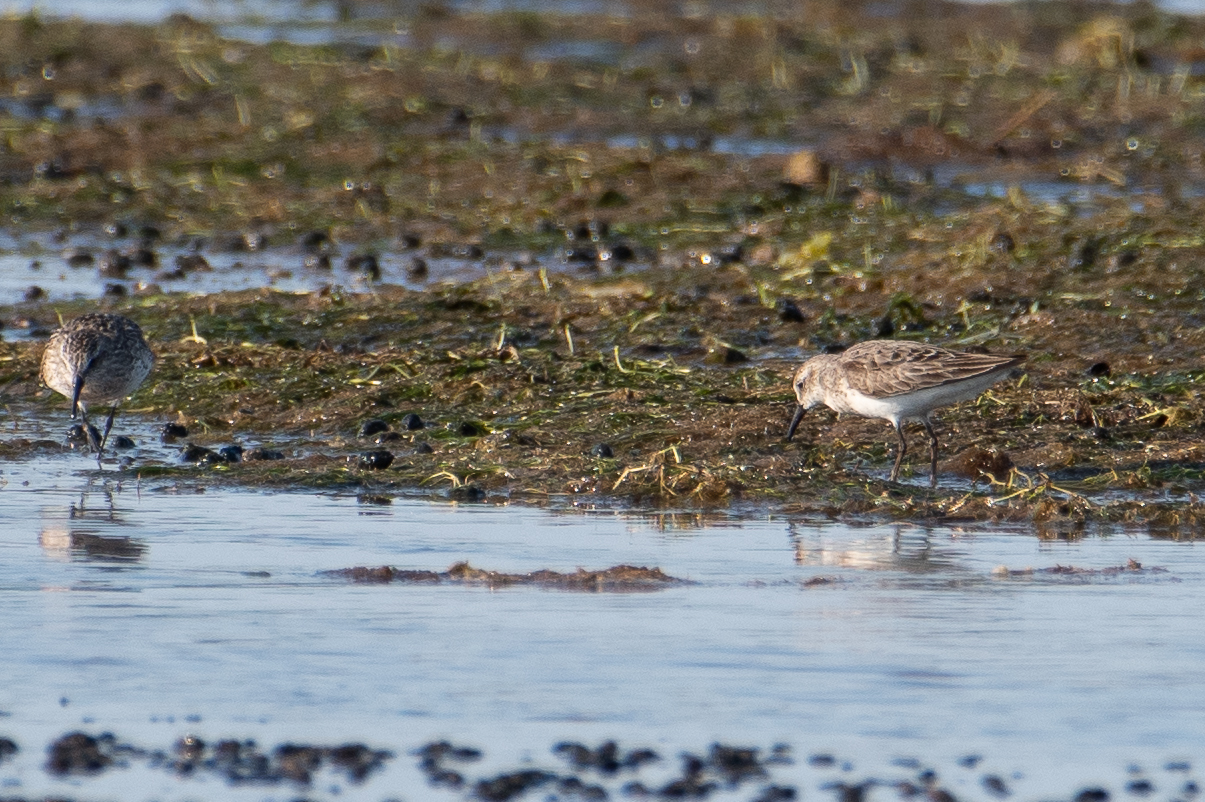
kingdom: Animalia
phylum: Chordata
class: Aves
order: Charadriiformes
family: Scolopacidae
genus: Calidris
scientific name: Calidris pusilla
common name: Semipalmated sandpiper
